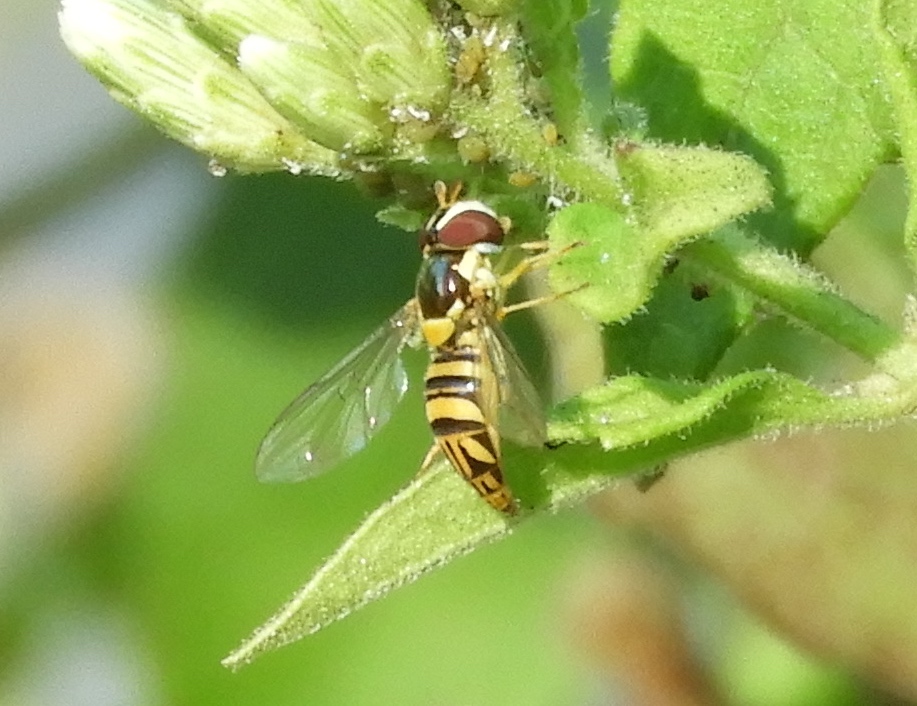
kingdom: Animalia
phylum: Arthropoda
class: Insecta
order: Diptera
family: Syrphidae
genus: Allograpta
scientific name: Allograpta obliqua
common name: Common oblique syrphid
